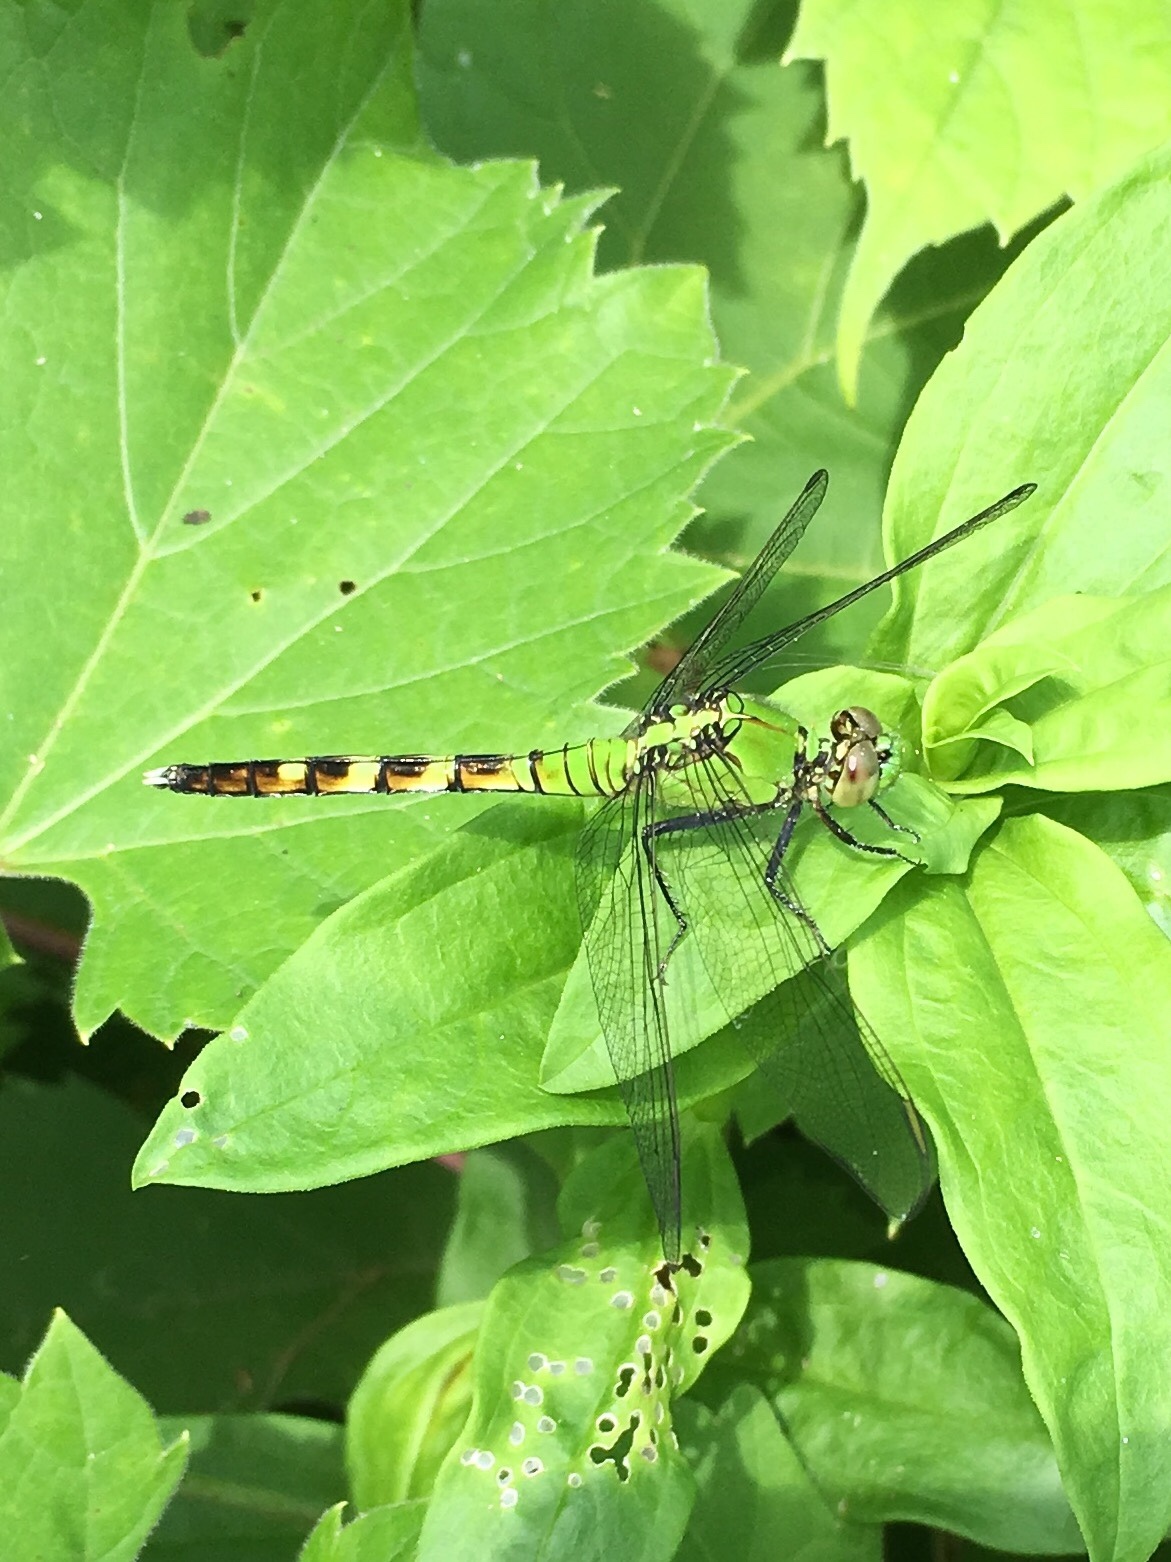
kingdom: Animalia
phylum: Arthropoda
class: Insecta
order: Odonata
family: Libellulidae
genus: Erythemis
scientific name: Erythemis simplicicollis
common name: Eastern pondhawk
